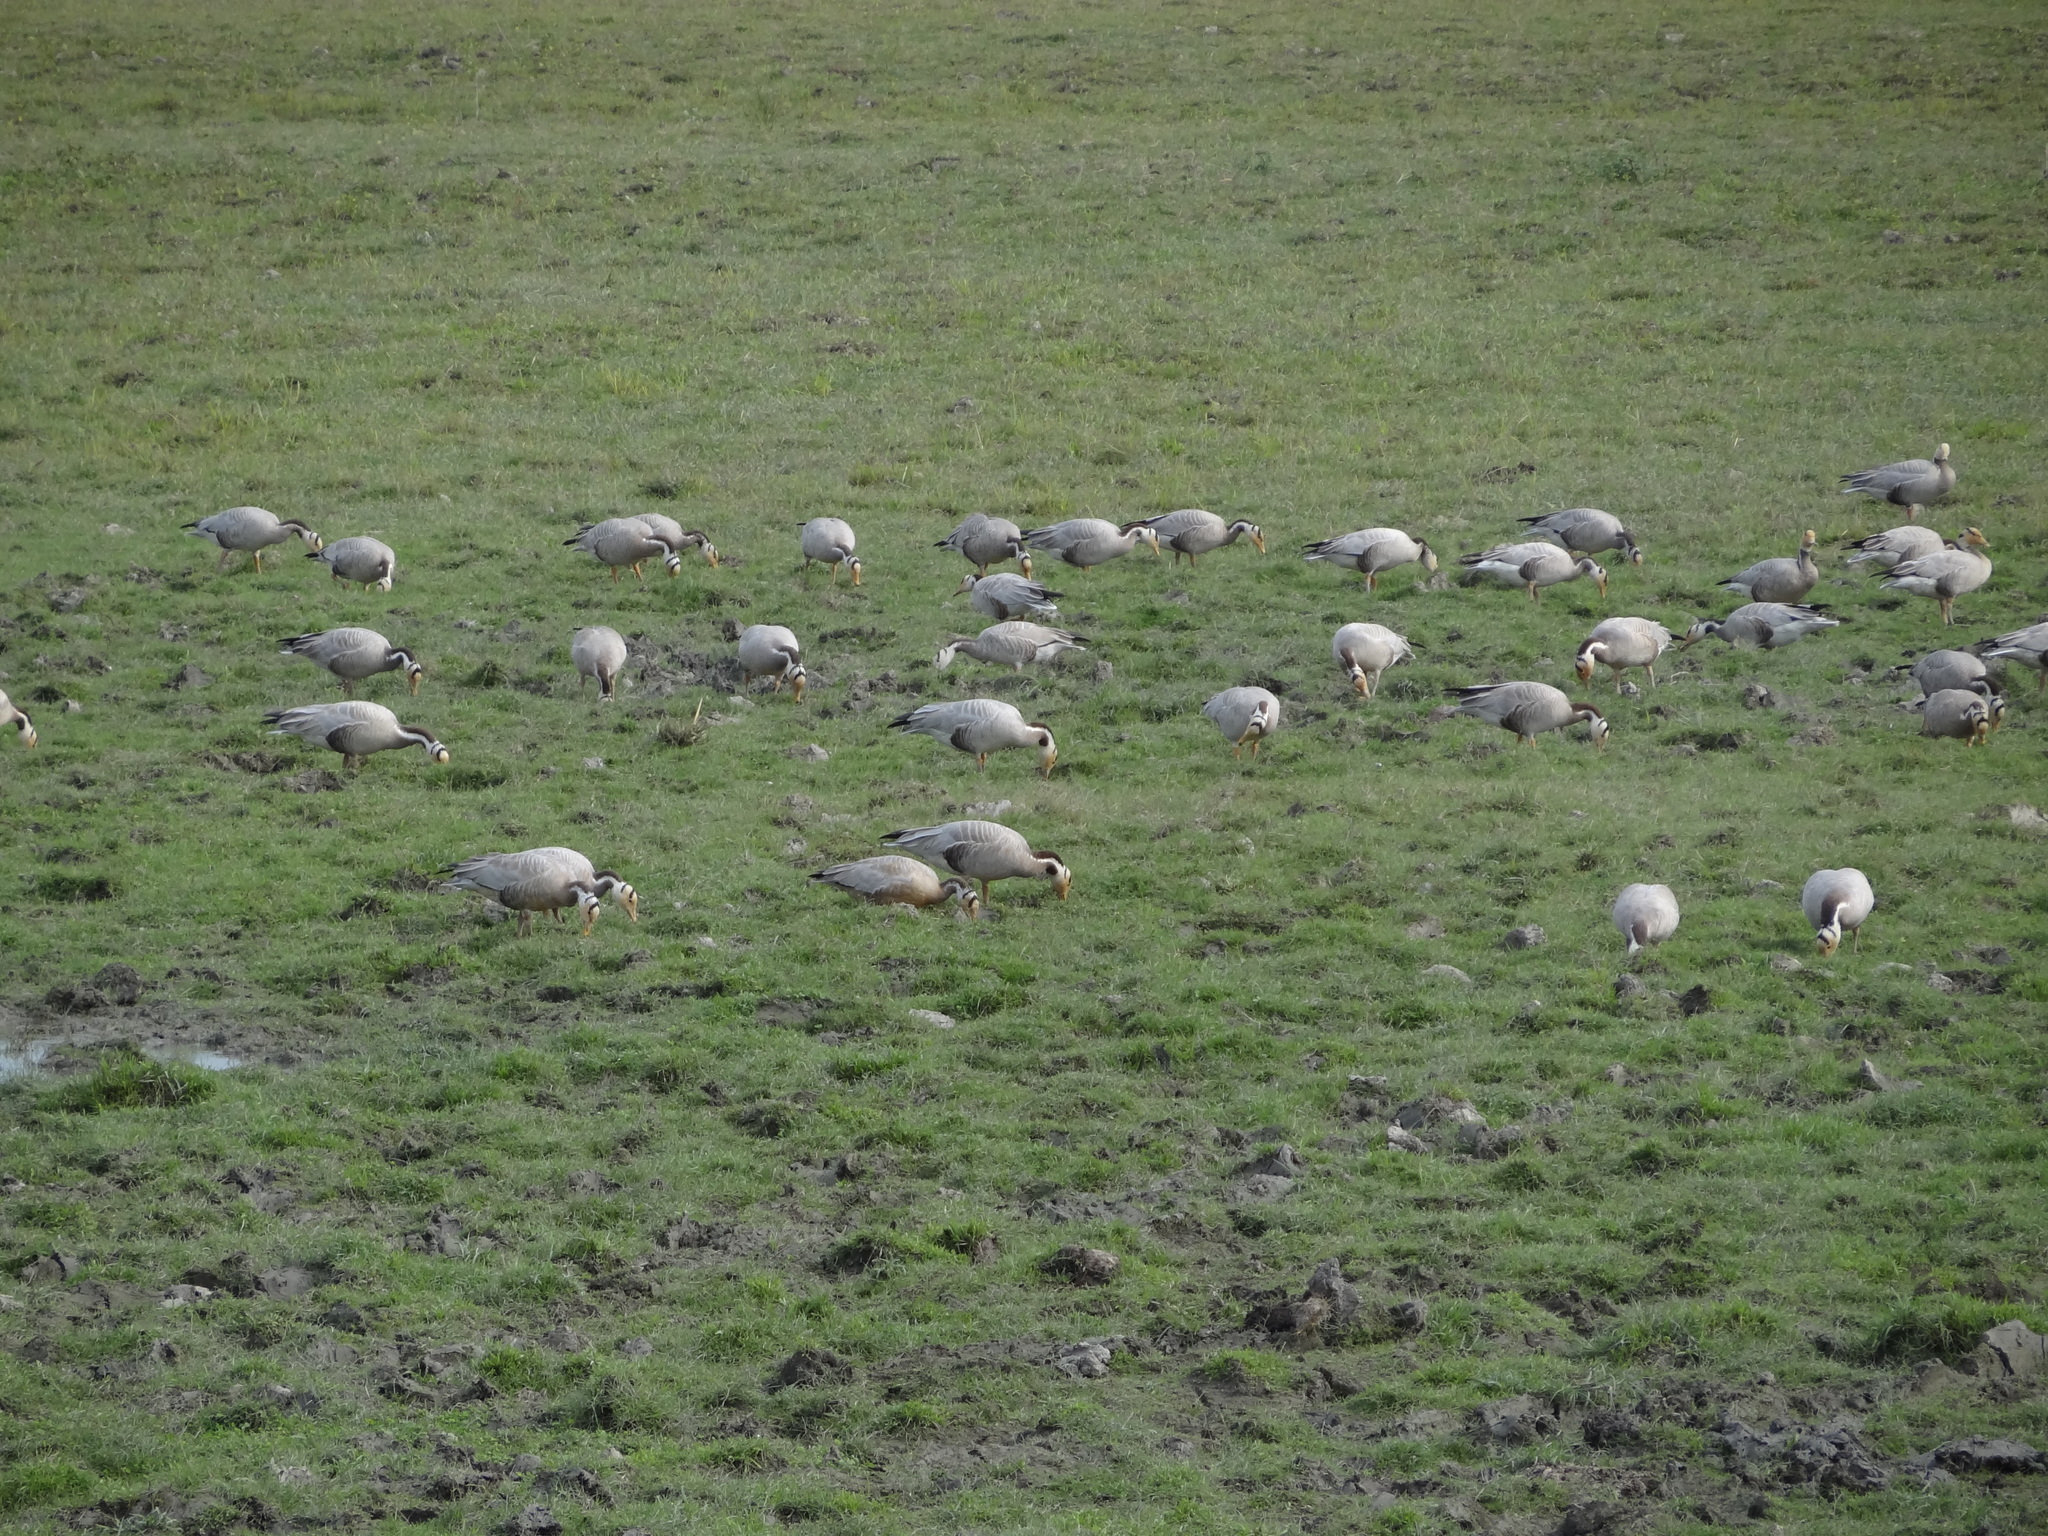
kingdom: Animalia
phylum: Chordata
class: Aves
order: Anseriformes
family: Anatidae
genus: Anser
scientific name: Anser indicus
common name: Bar-headed goose
